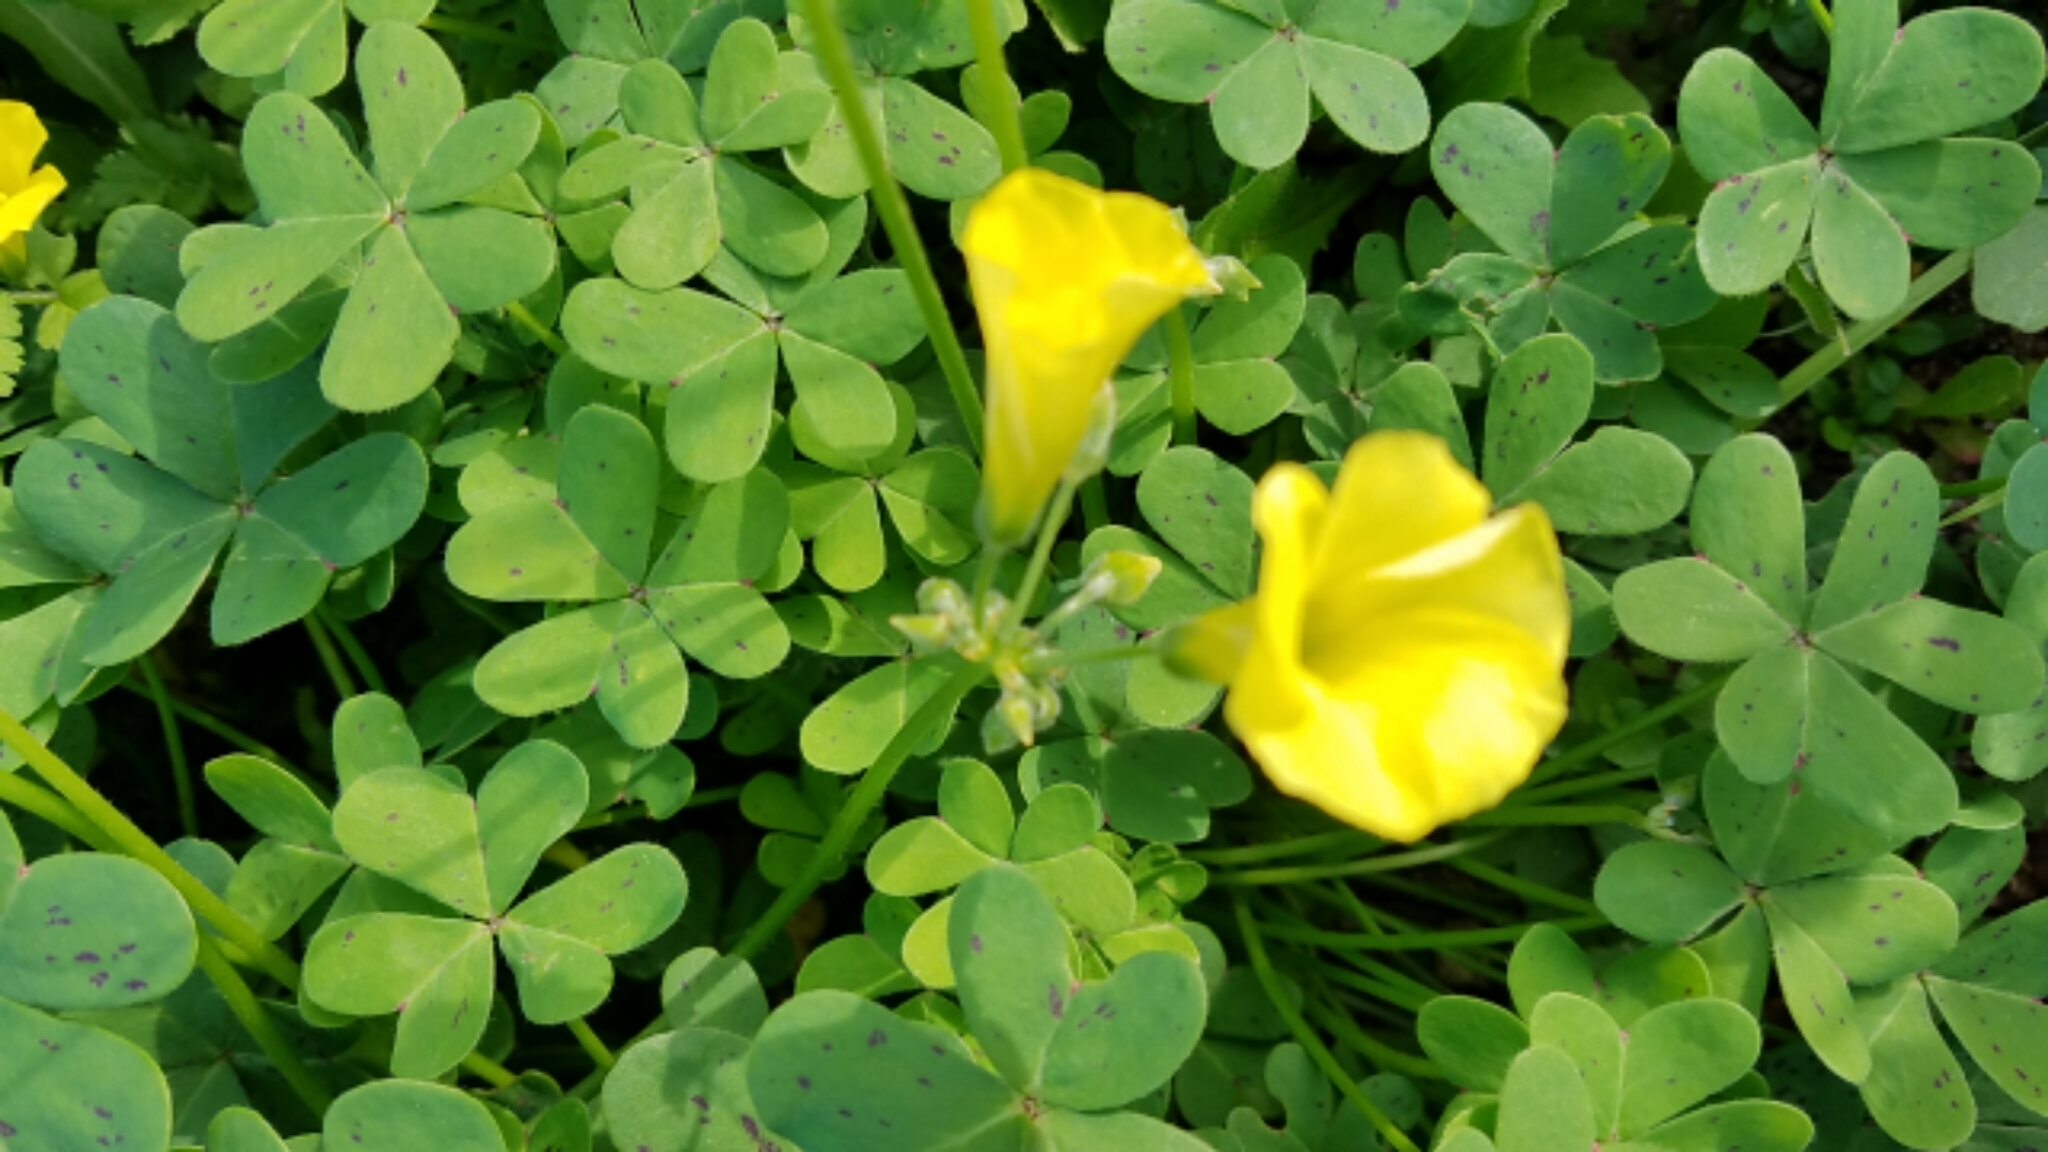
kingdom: Plantae
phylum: Tracheophyta
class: Magnoliopsida
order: Oxalidales
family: Oxalidaceae
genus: Oxalis
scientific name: Oxalis pes-caprae
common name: Bermuda-buttercup
